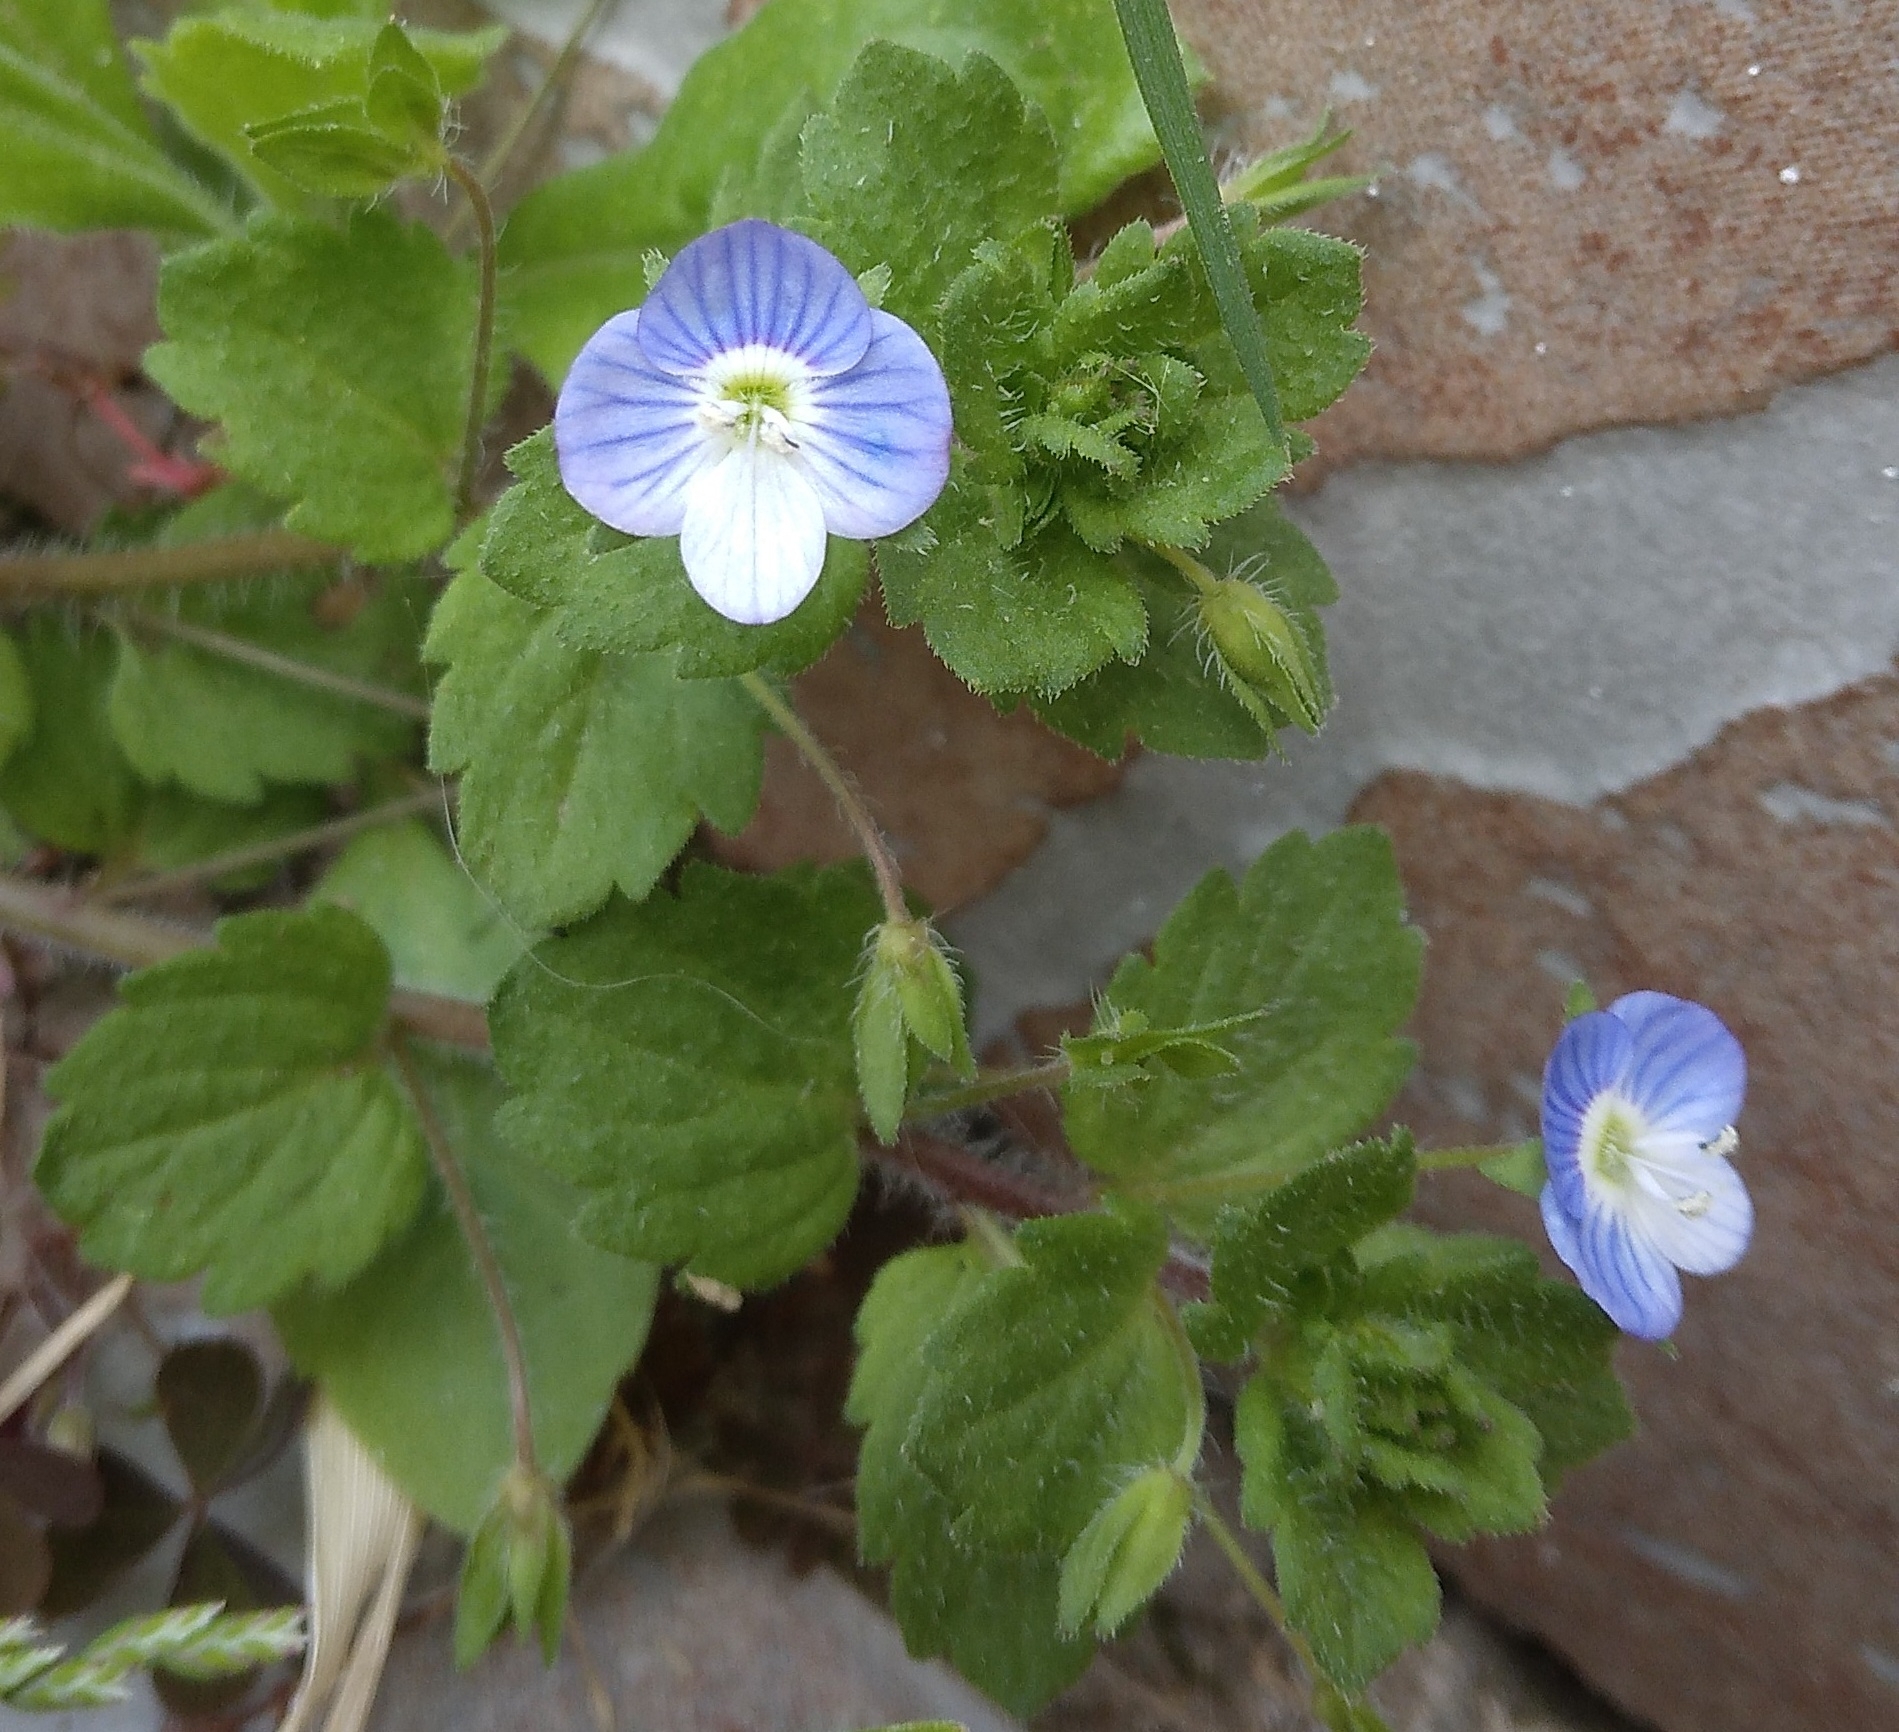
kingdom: Plantae
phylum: Tracheophyta
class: Magnoliopsida
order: Lamiales
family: Plantaginaceae
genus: Veronica
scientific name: Veronica persica
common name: Common field-speedwell
